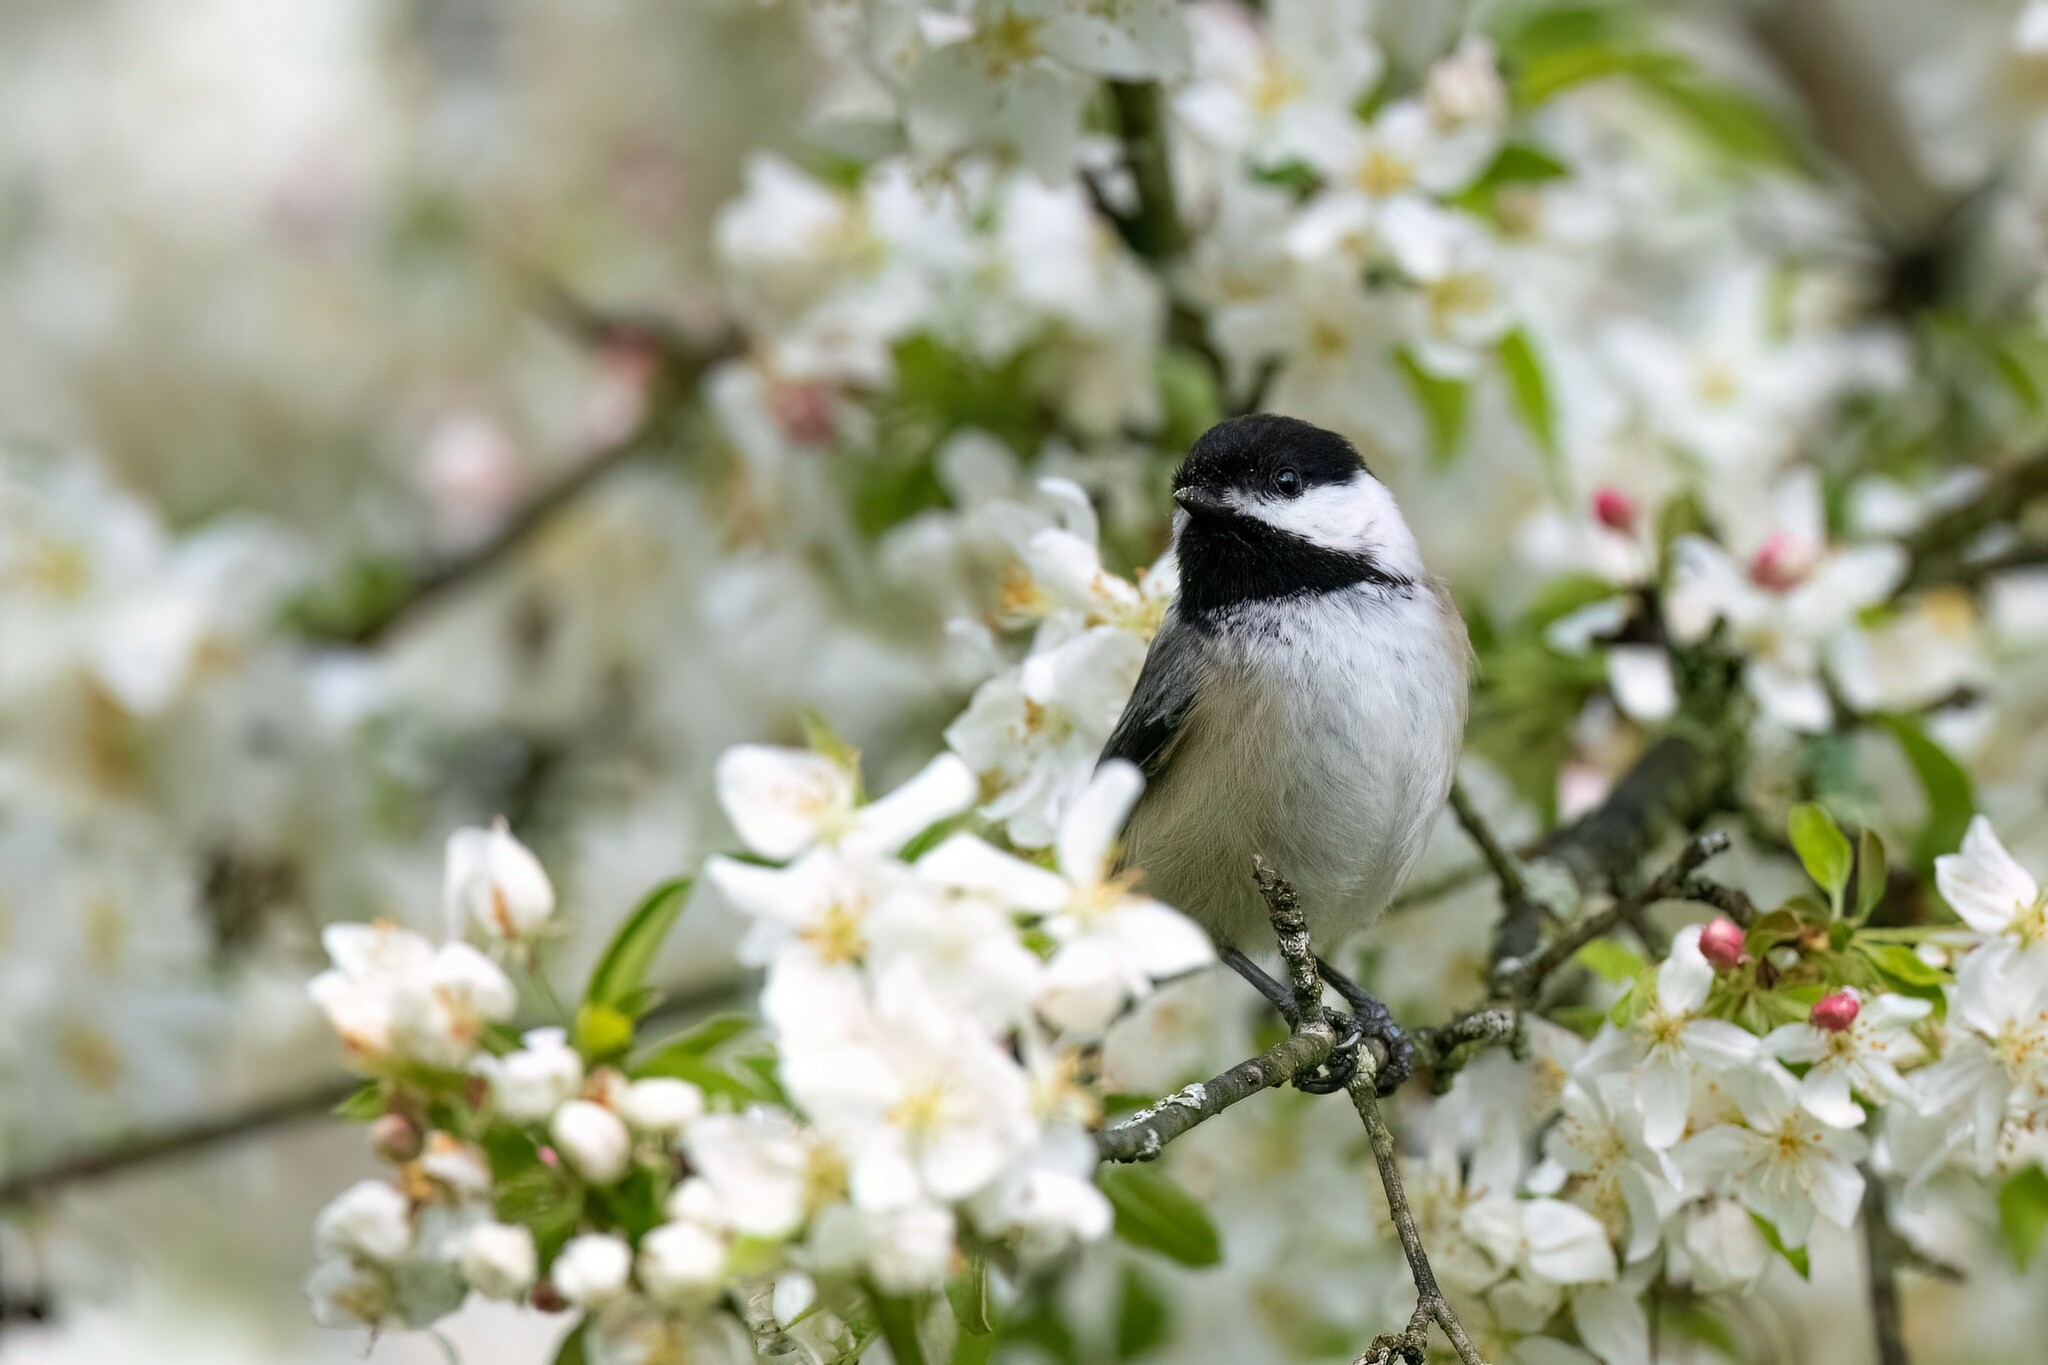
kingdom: Animalia
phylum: Chordata
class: Aves
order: Passeriformes
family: Paridae
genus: Poecile
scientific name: Poecile atricapillus
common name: Black-capped chickadee
